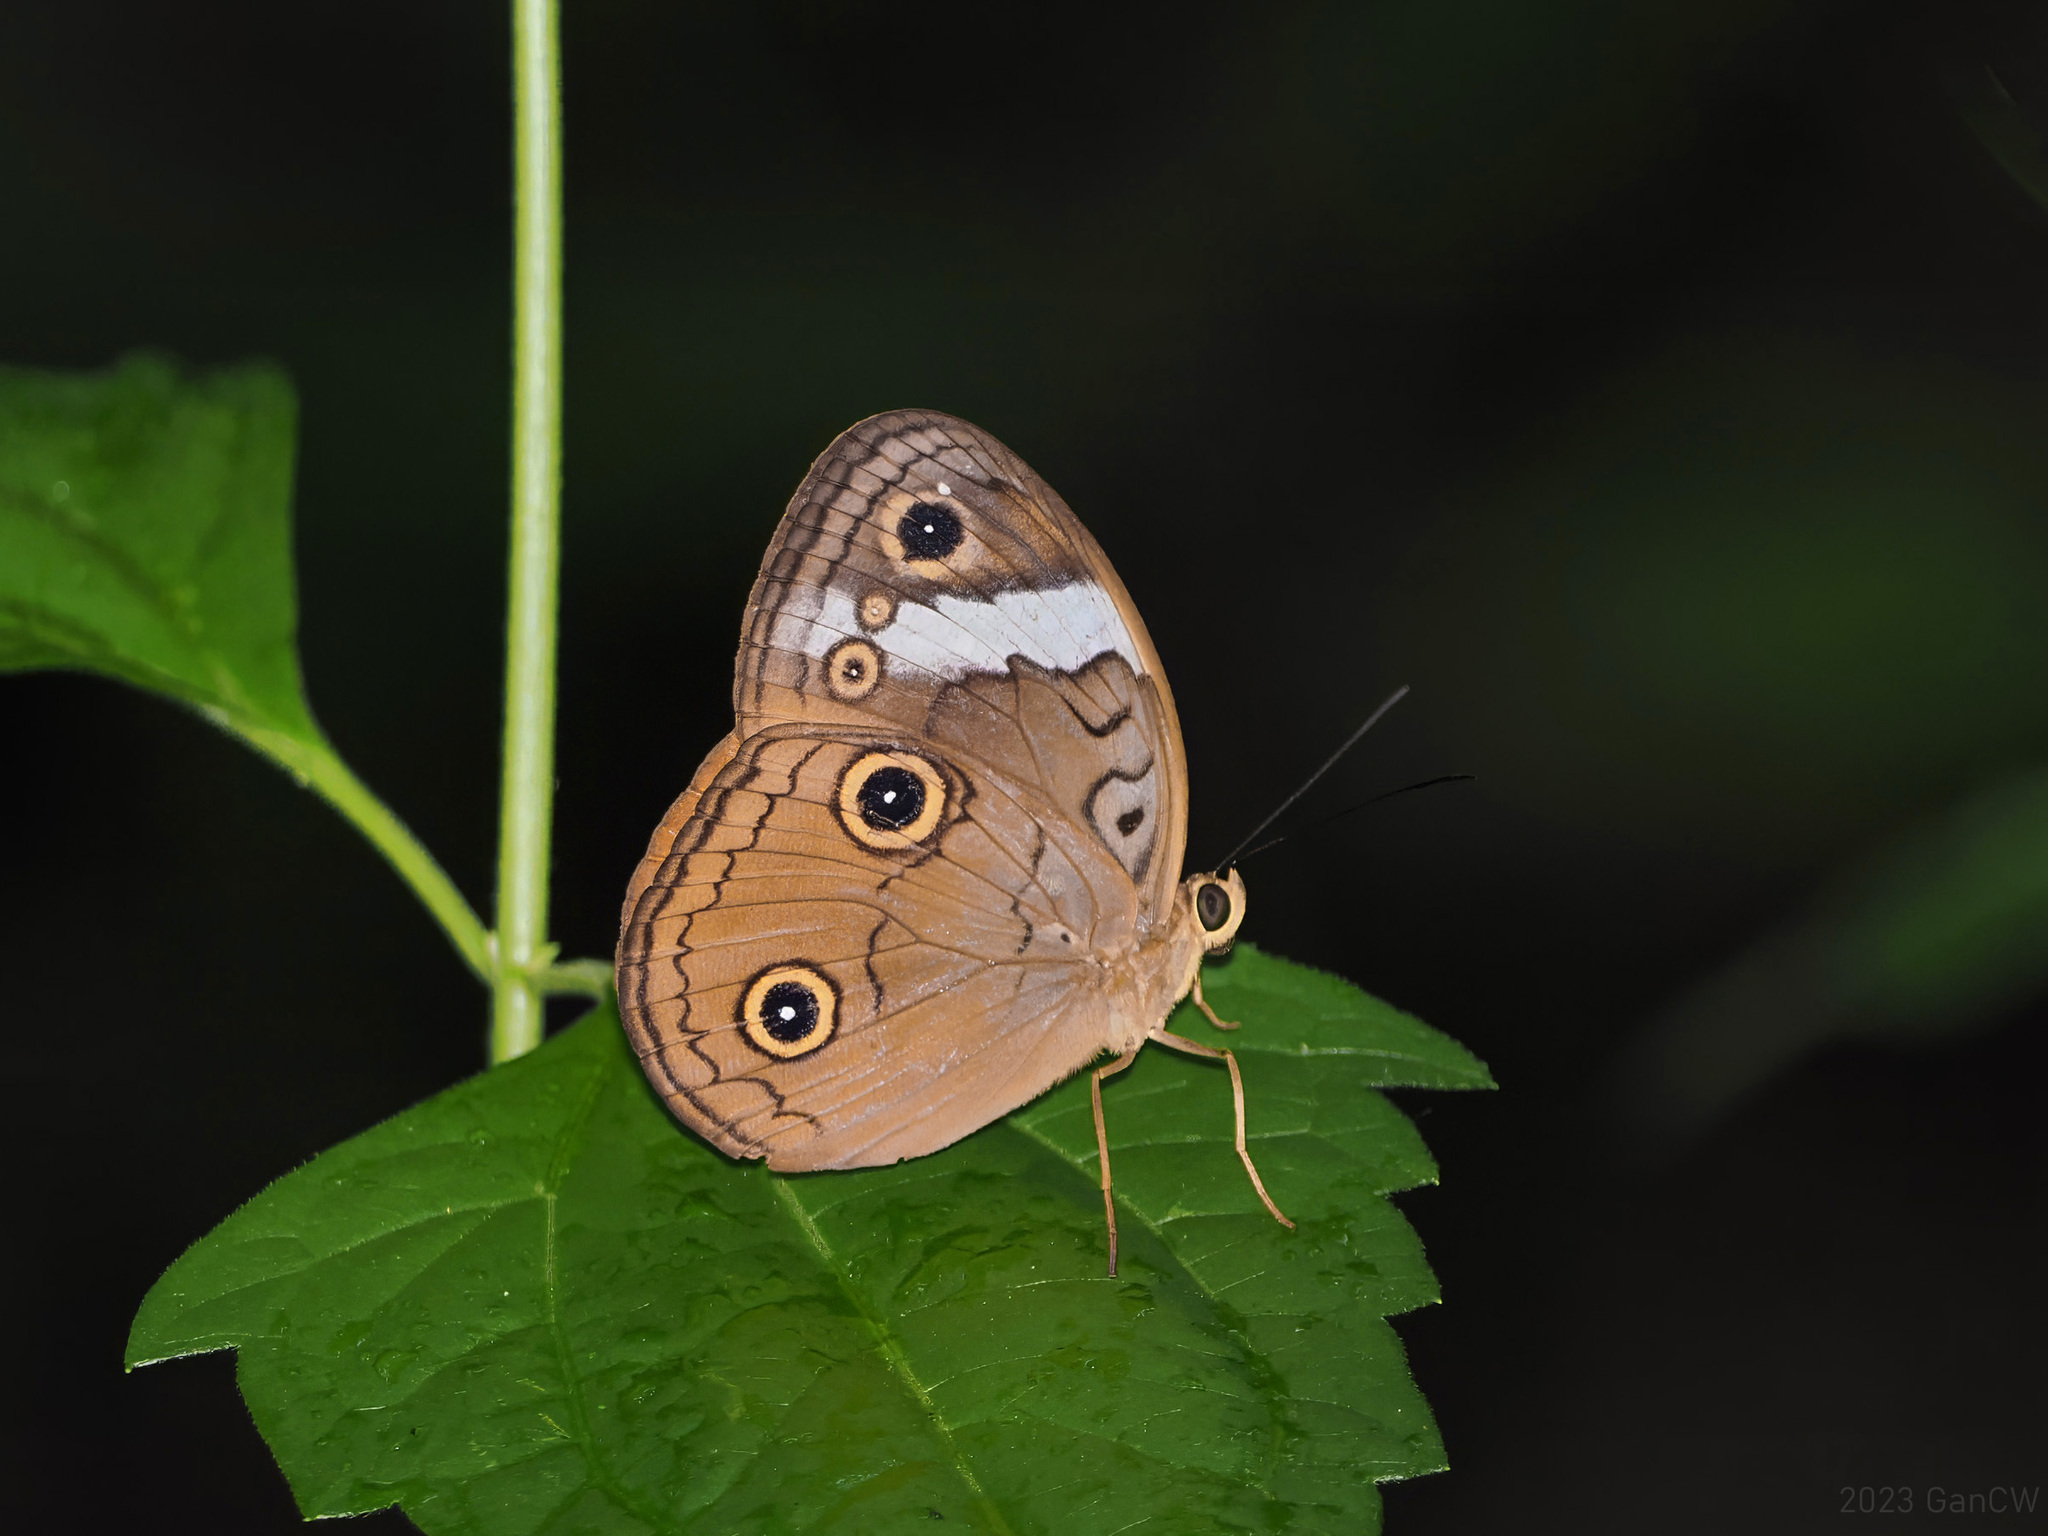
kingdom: Animalia
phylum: Arthropoda
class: Insecta
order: Lepidoptera
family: Nymphalidae
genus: Faunis
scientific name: Faunis menado
